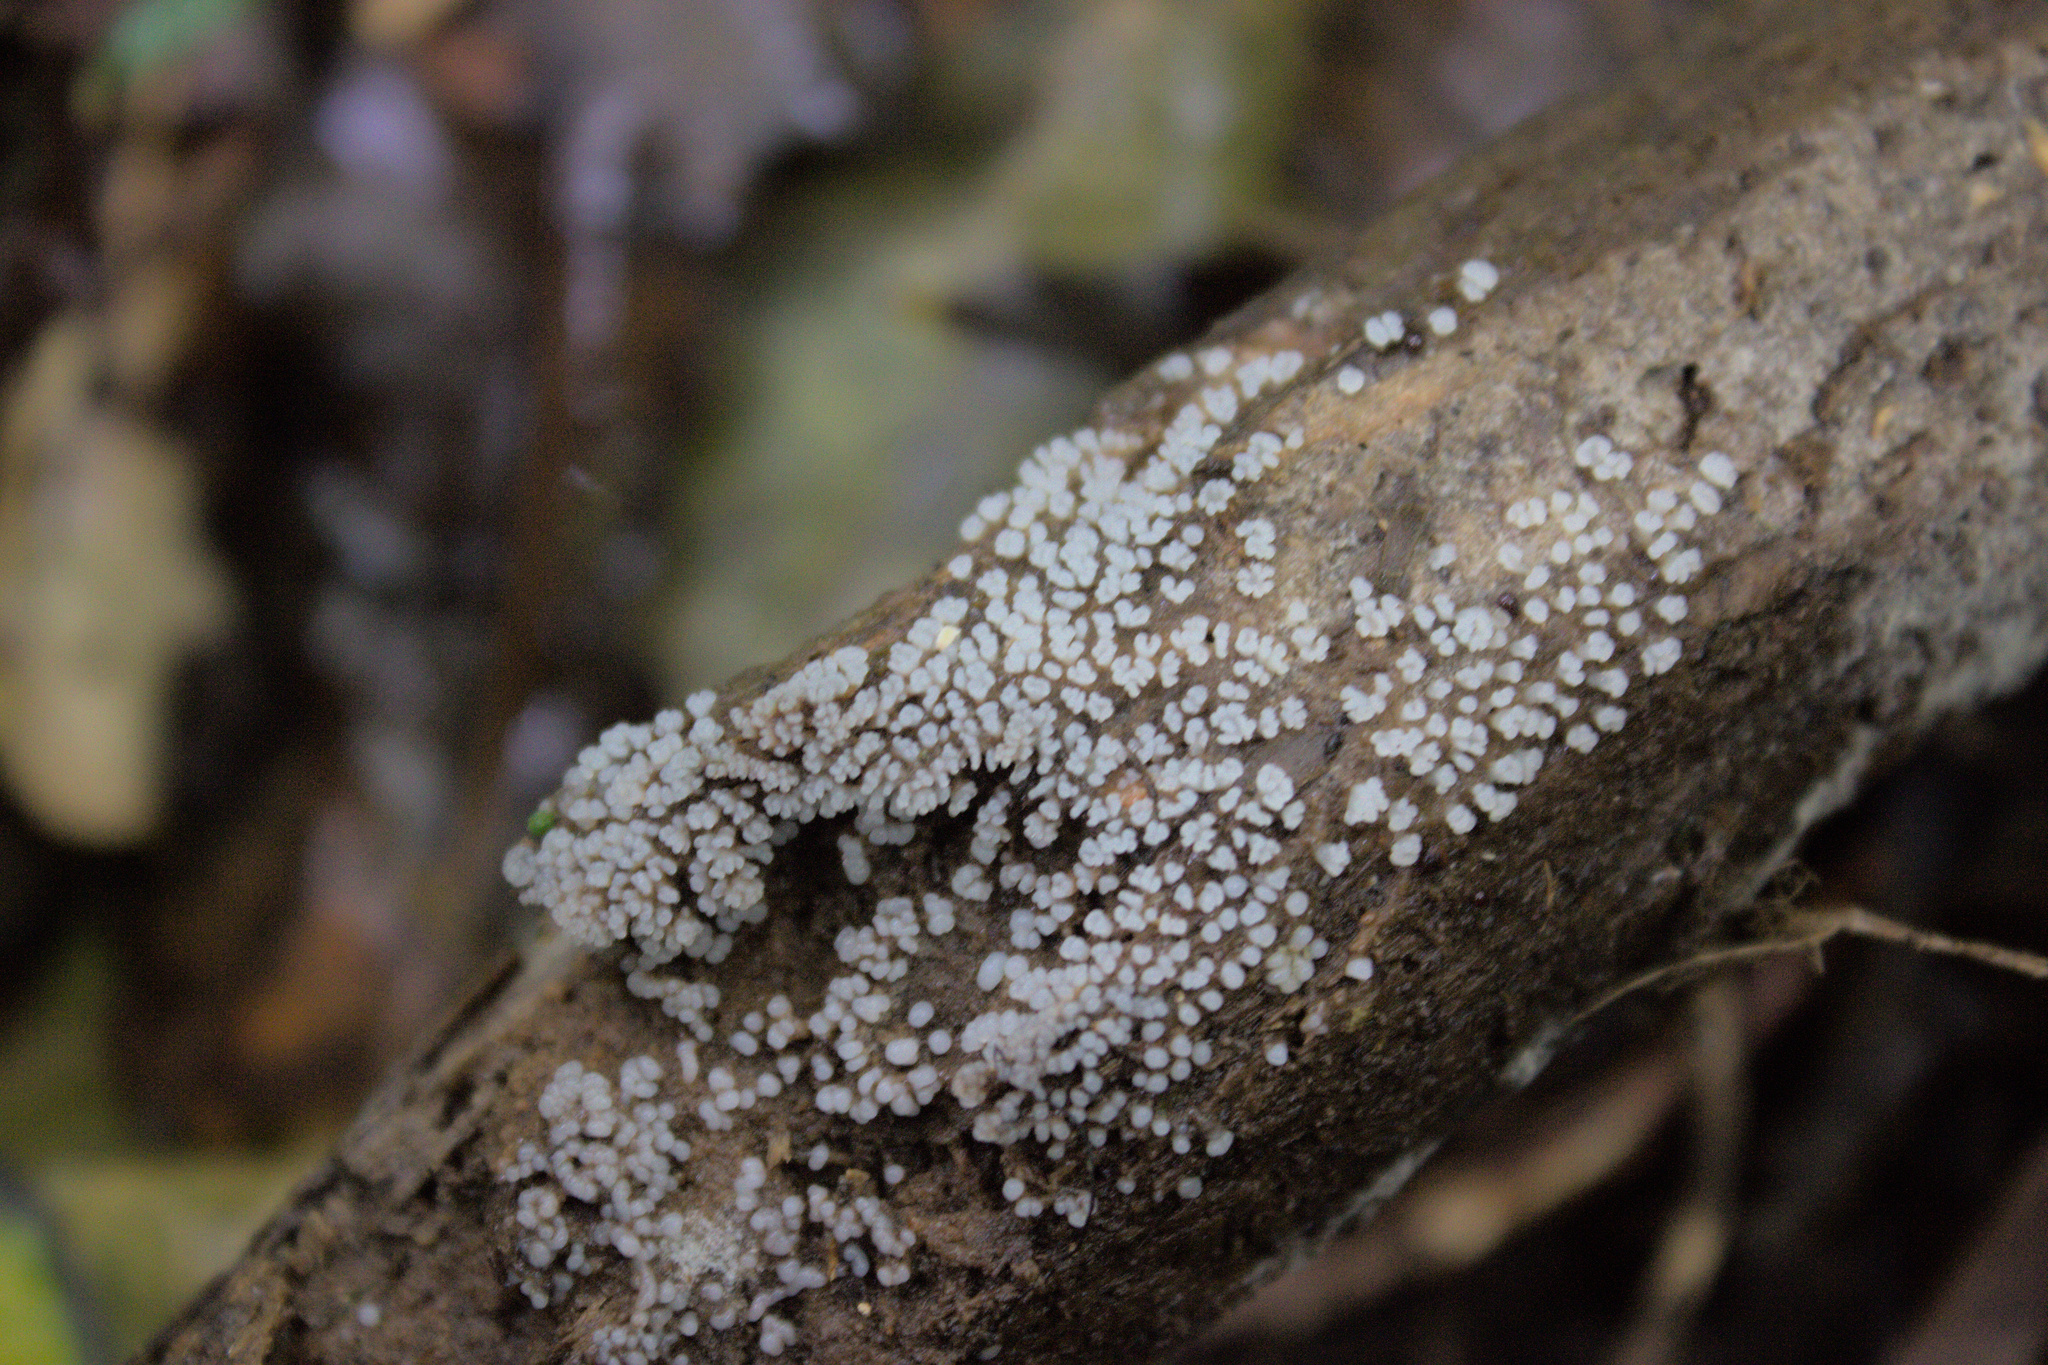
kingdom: Protozoa
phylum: Mycetozoa
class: Protosteliomycetes
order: Ceratiomyxales
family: Ceratiomyxaceae
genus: Ceratiomyxa
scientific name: Ceratiomyxa fruticulosa
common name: Honeycomb coral slime mold
